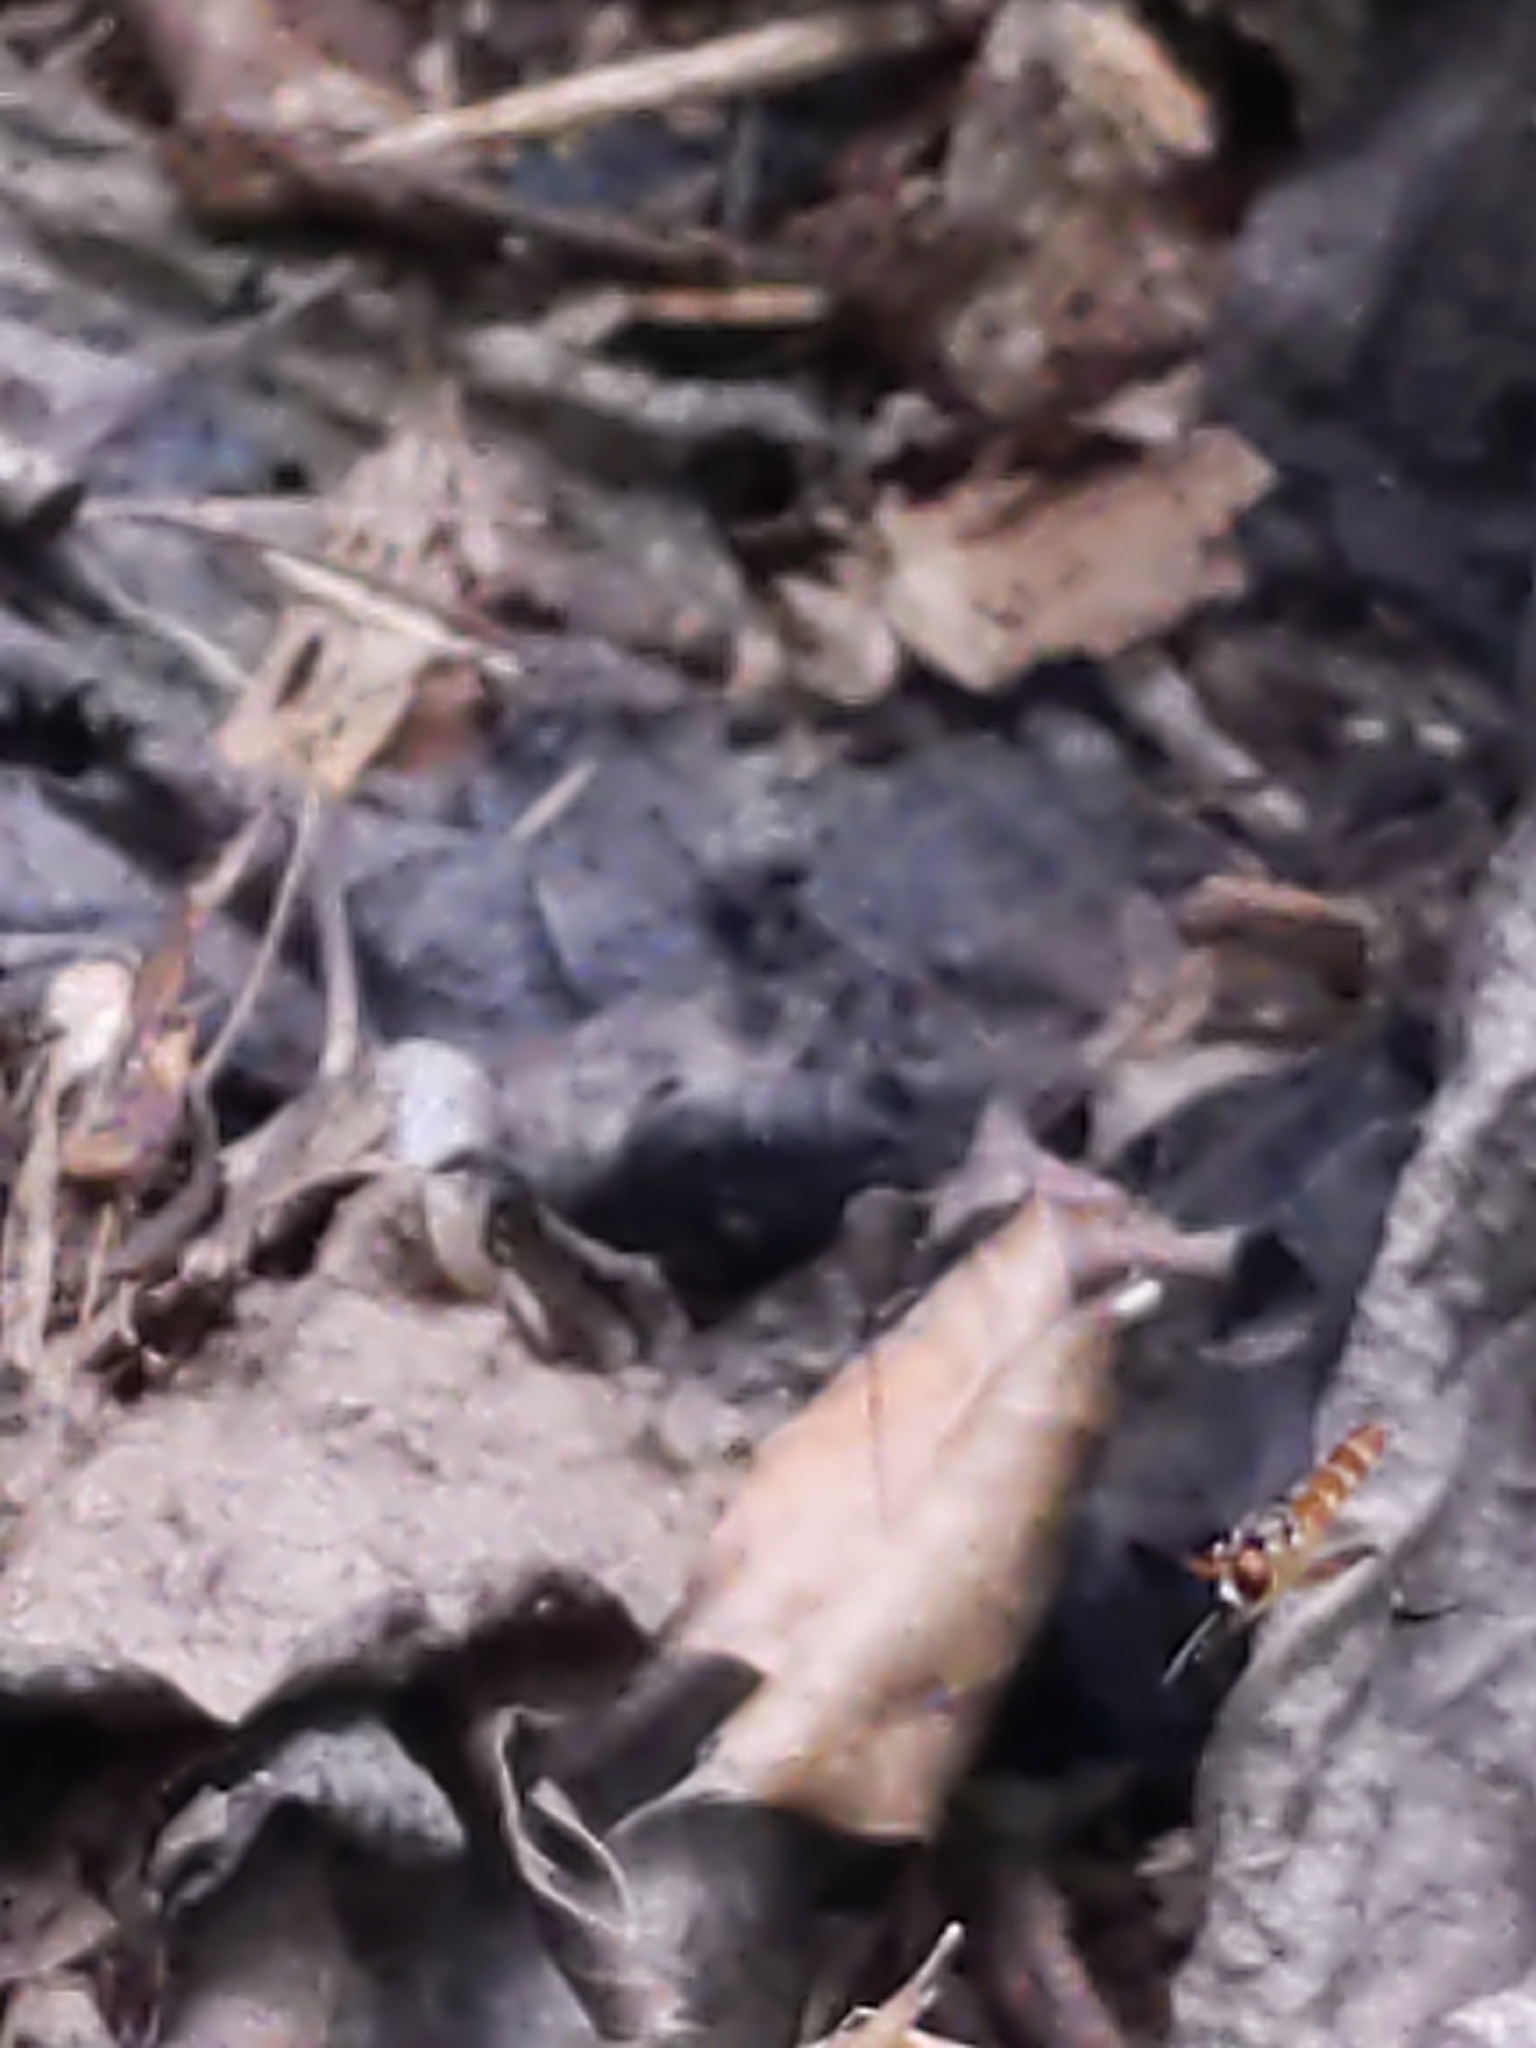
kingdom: Animalia
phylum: Arthropoda
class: Insecta
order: Diptera
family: Conopidae
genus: Stylogaster
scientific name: Stylogaster neglecta
